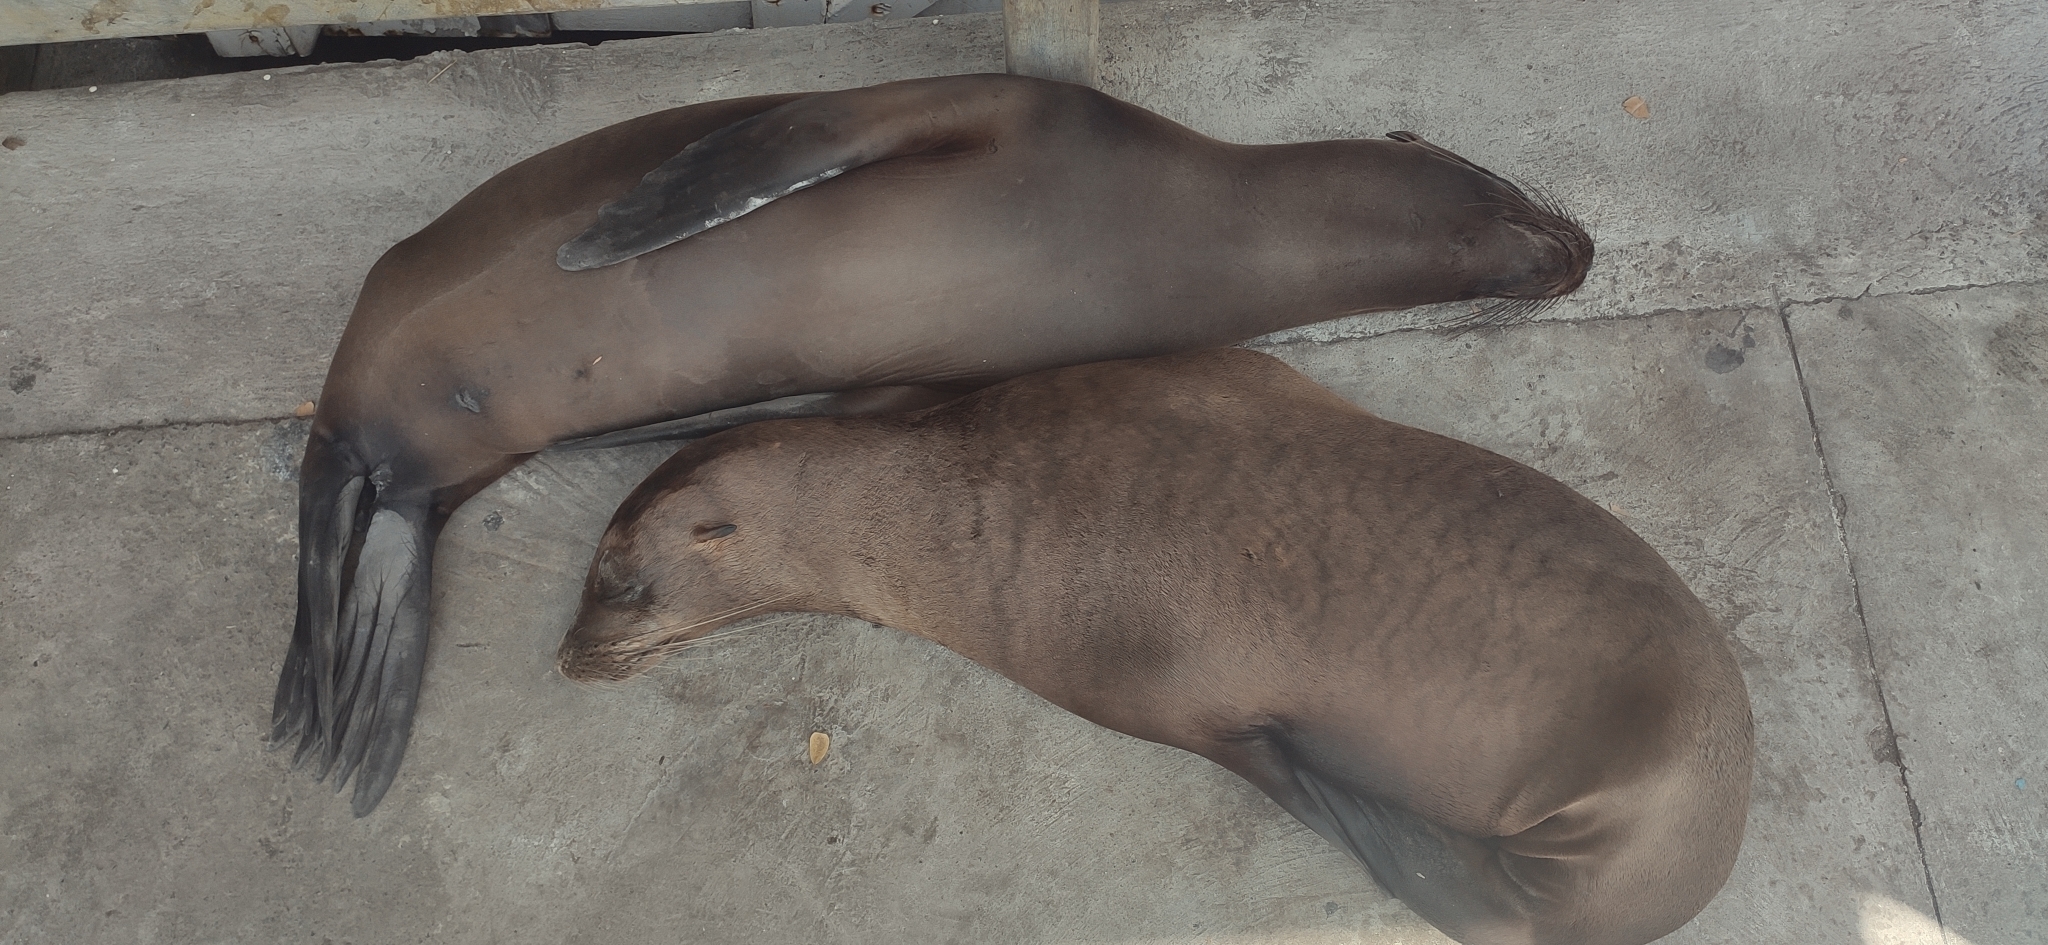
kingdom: Animalia
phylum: Chordata
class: Mammalia
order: Carnivora
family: Otariidae
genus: Zalophus
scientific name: Zalophus wollebaeki
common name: Galapagos sea lion
